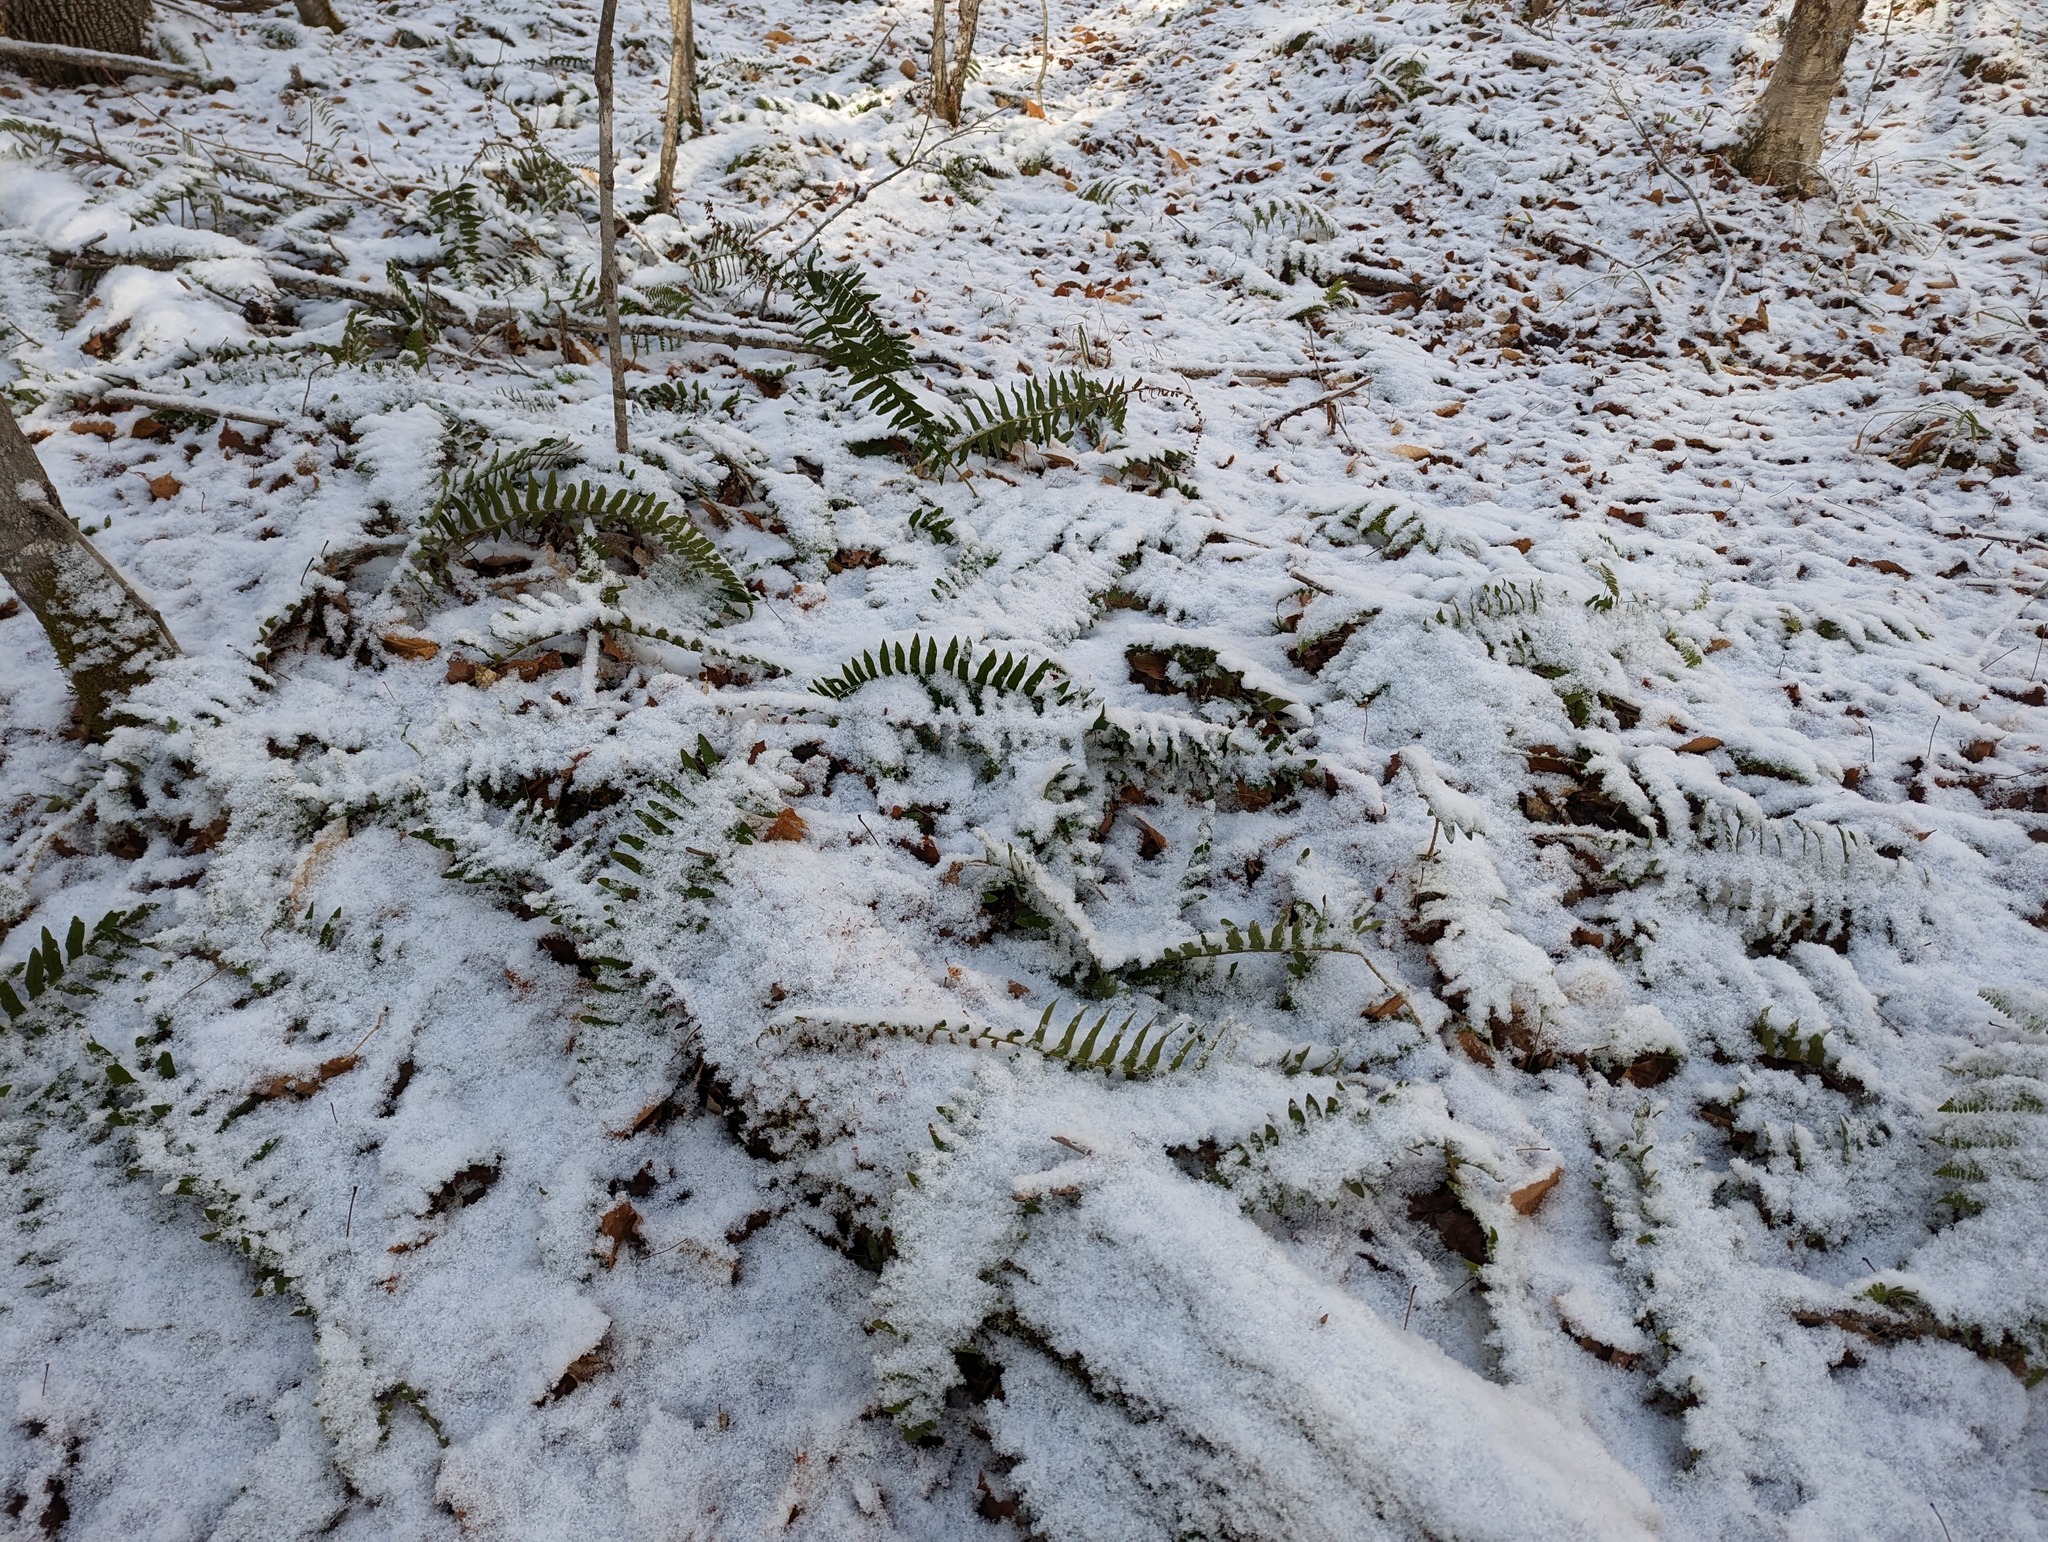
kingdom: Plantae
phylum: Tracheophyta
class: Polypodiopsida
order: Polypodiales
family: Dryopteridaceae
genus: Polystichum
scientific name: Polystichum acrostichoides
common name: Christmas fern
